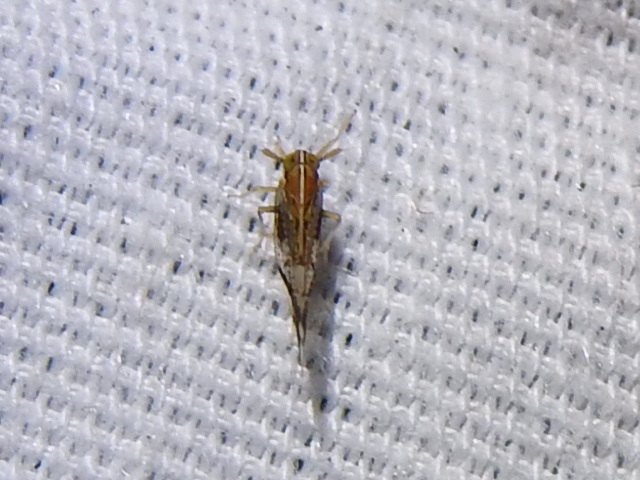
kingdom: Animalia
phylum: Arthropoda
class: Insecta
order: Hemiptera
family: Delphacidae
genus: Liburniella
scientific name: Liburniella ornata
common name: Ornate planthopper
